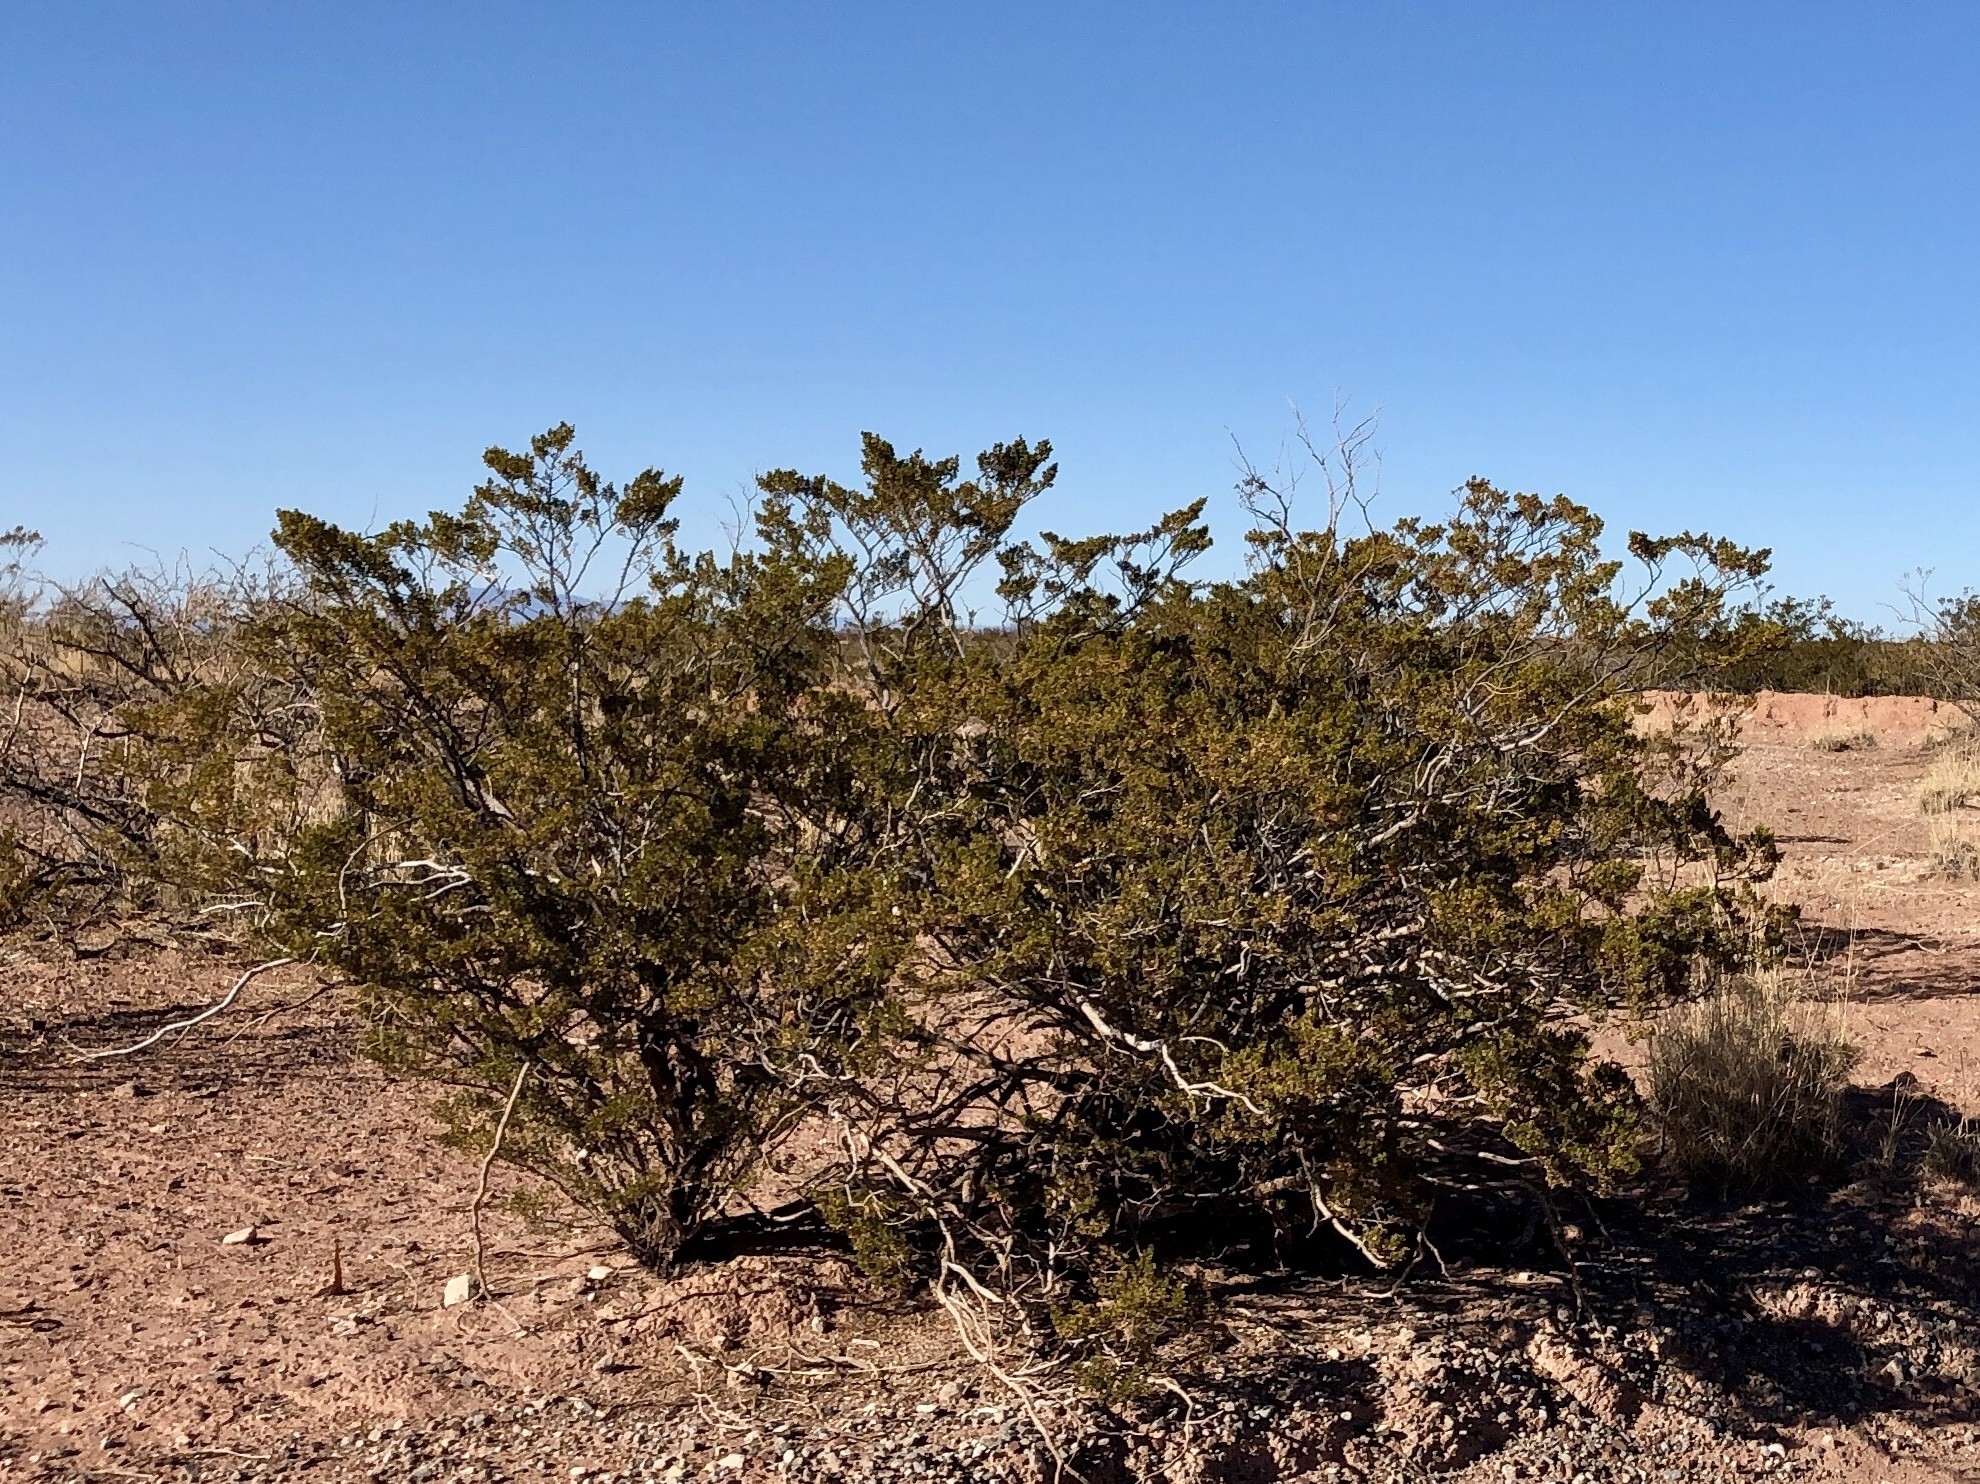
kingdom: Plantae
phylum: Tracheophyta
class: Magnoliopsida
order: Zygophyllales
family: Zygophyllaceae
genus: Larrea
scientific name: Larrea tridentata
